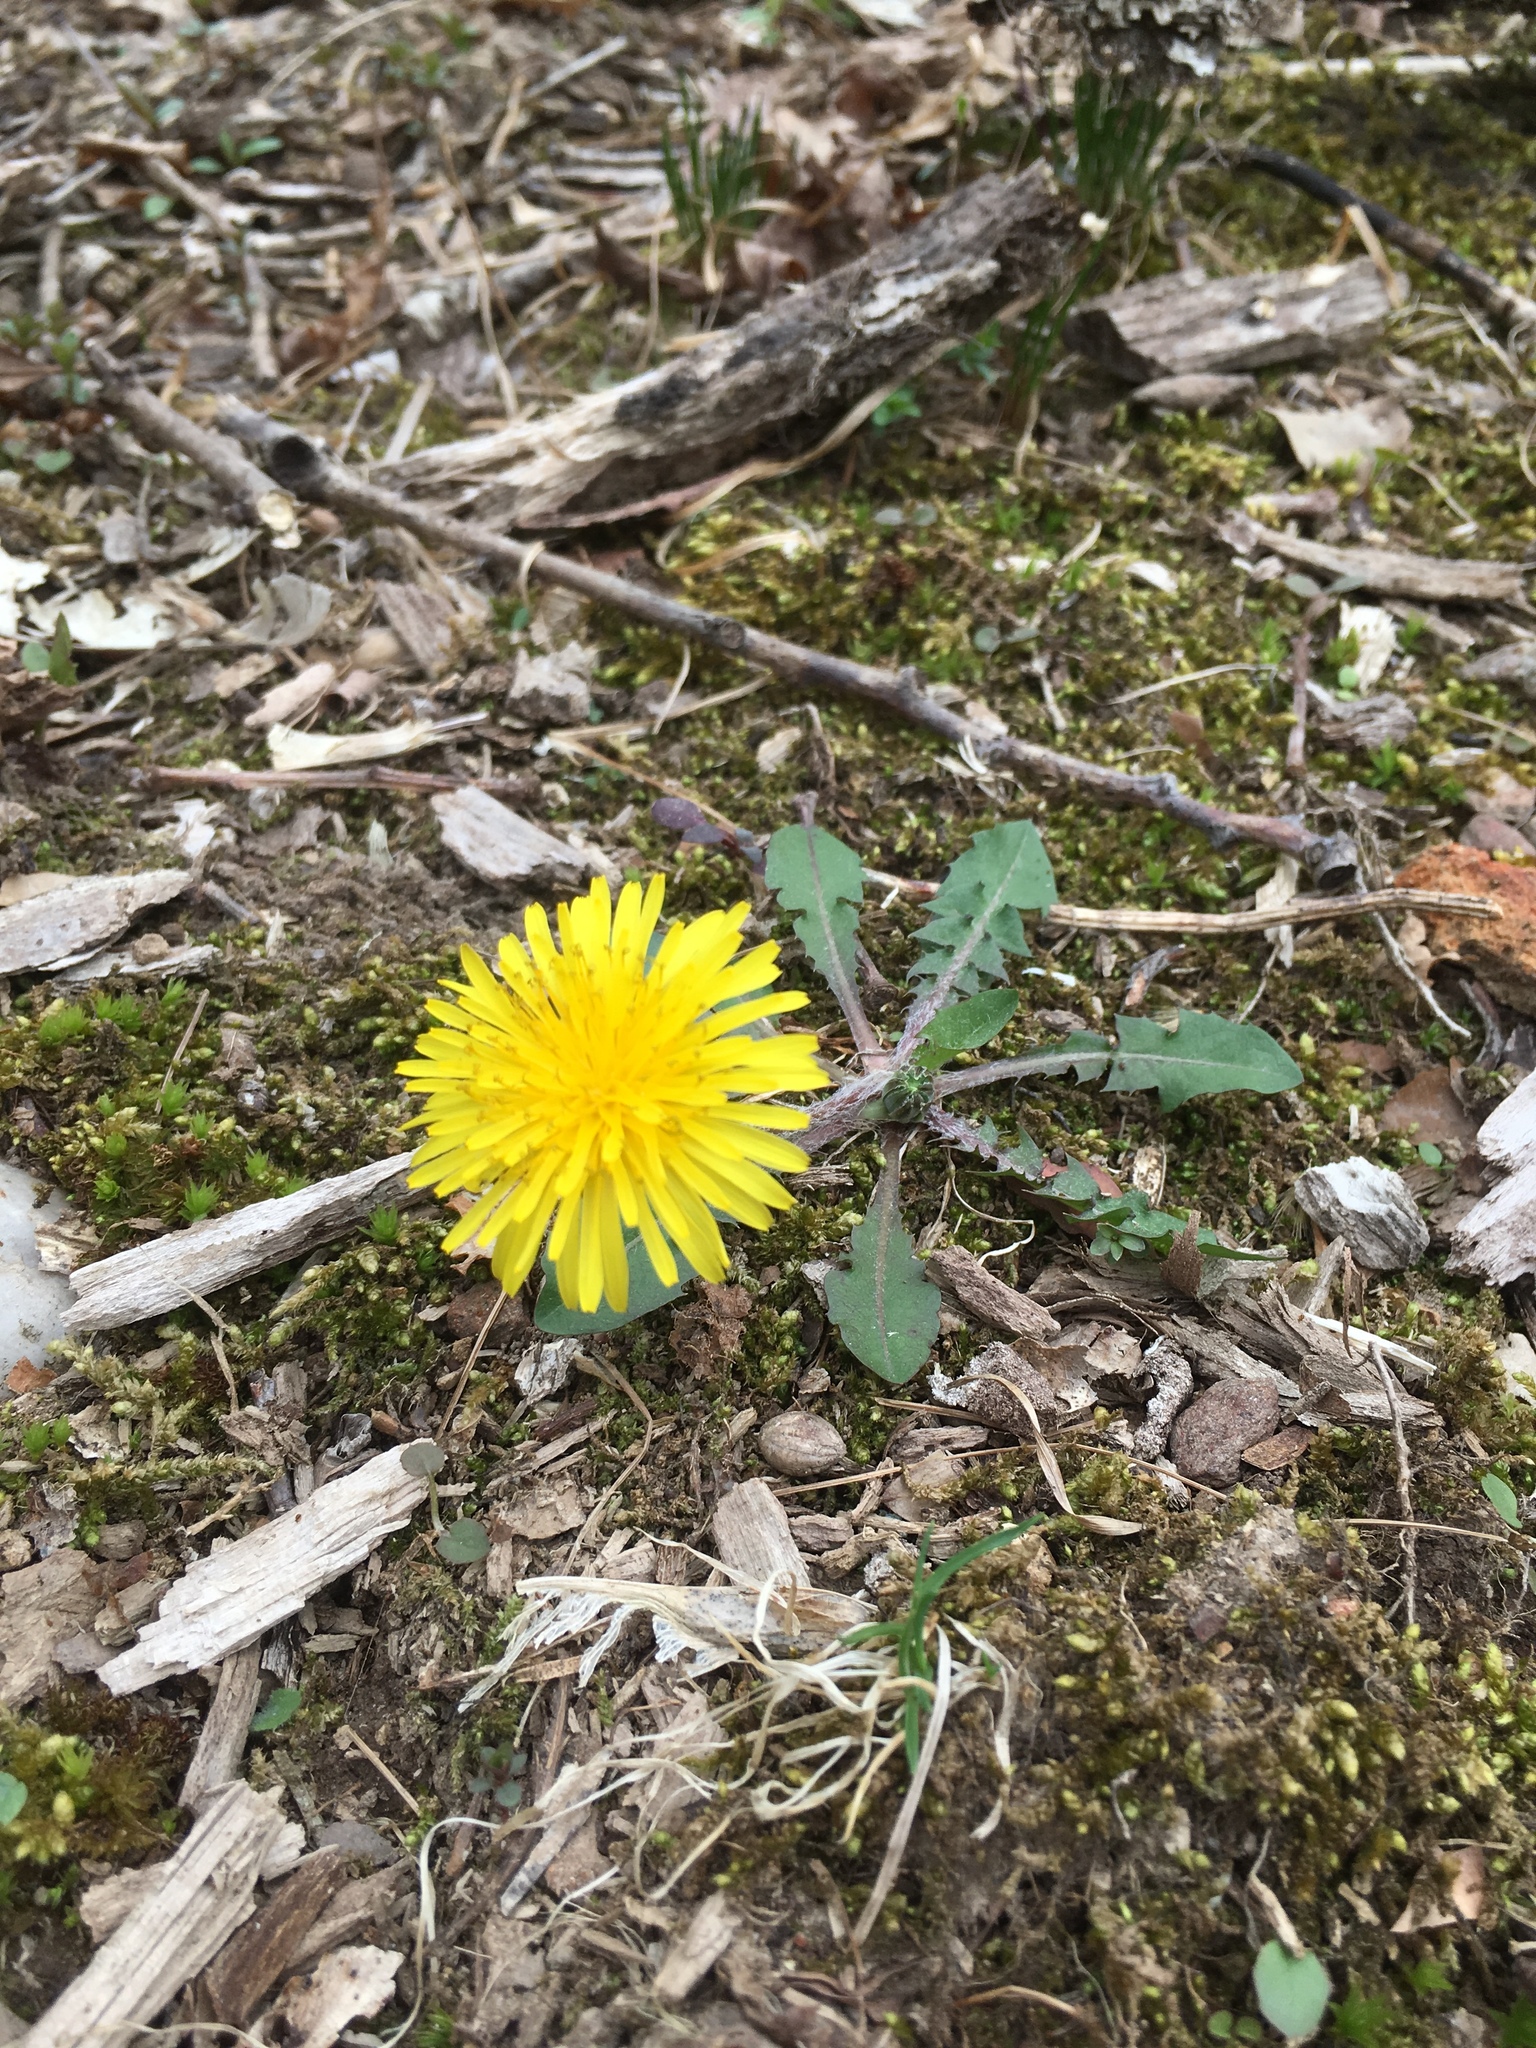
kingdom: Plantae
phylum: Tracheophyta
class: Magnoliopsida
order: Asterales
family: Asteraceae
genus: Taraxacum
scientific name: Taraxacum officinale
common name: Common dandelion
